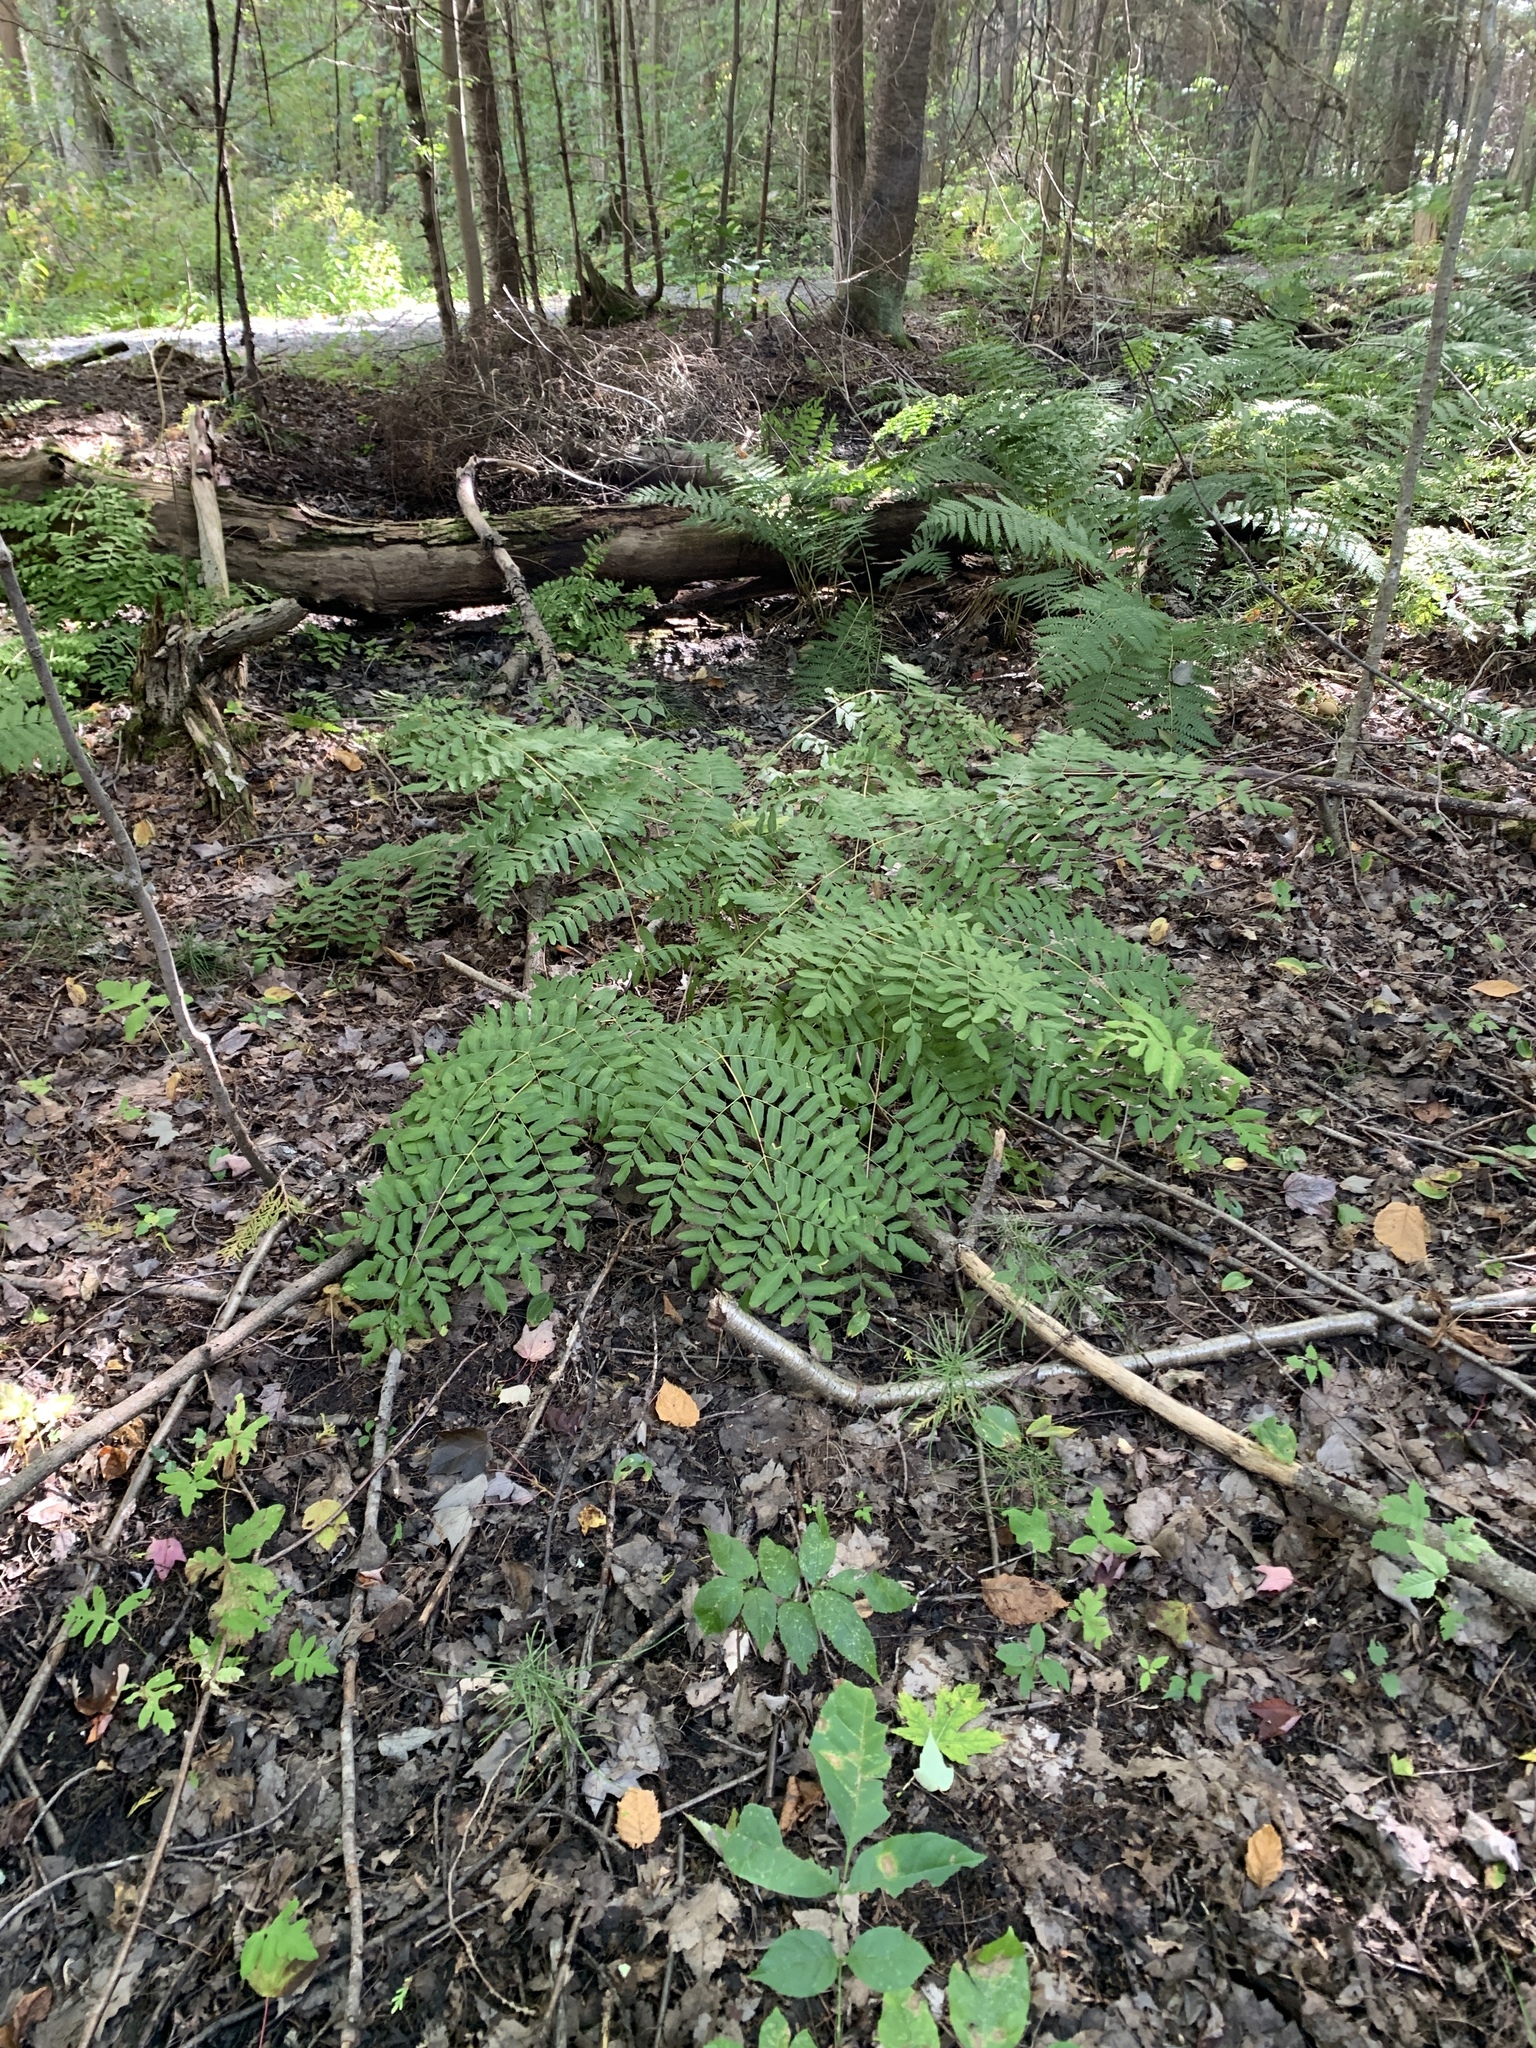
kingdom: Plantae
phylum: Tracheophyta
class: Polypodiopsida
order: Osmundales
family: Osmundaceae
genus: Osmunda
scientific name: Osmunda spectabilis
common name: American royal fern
